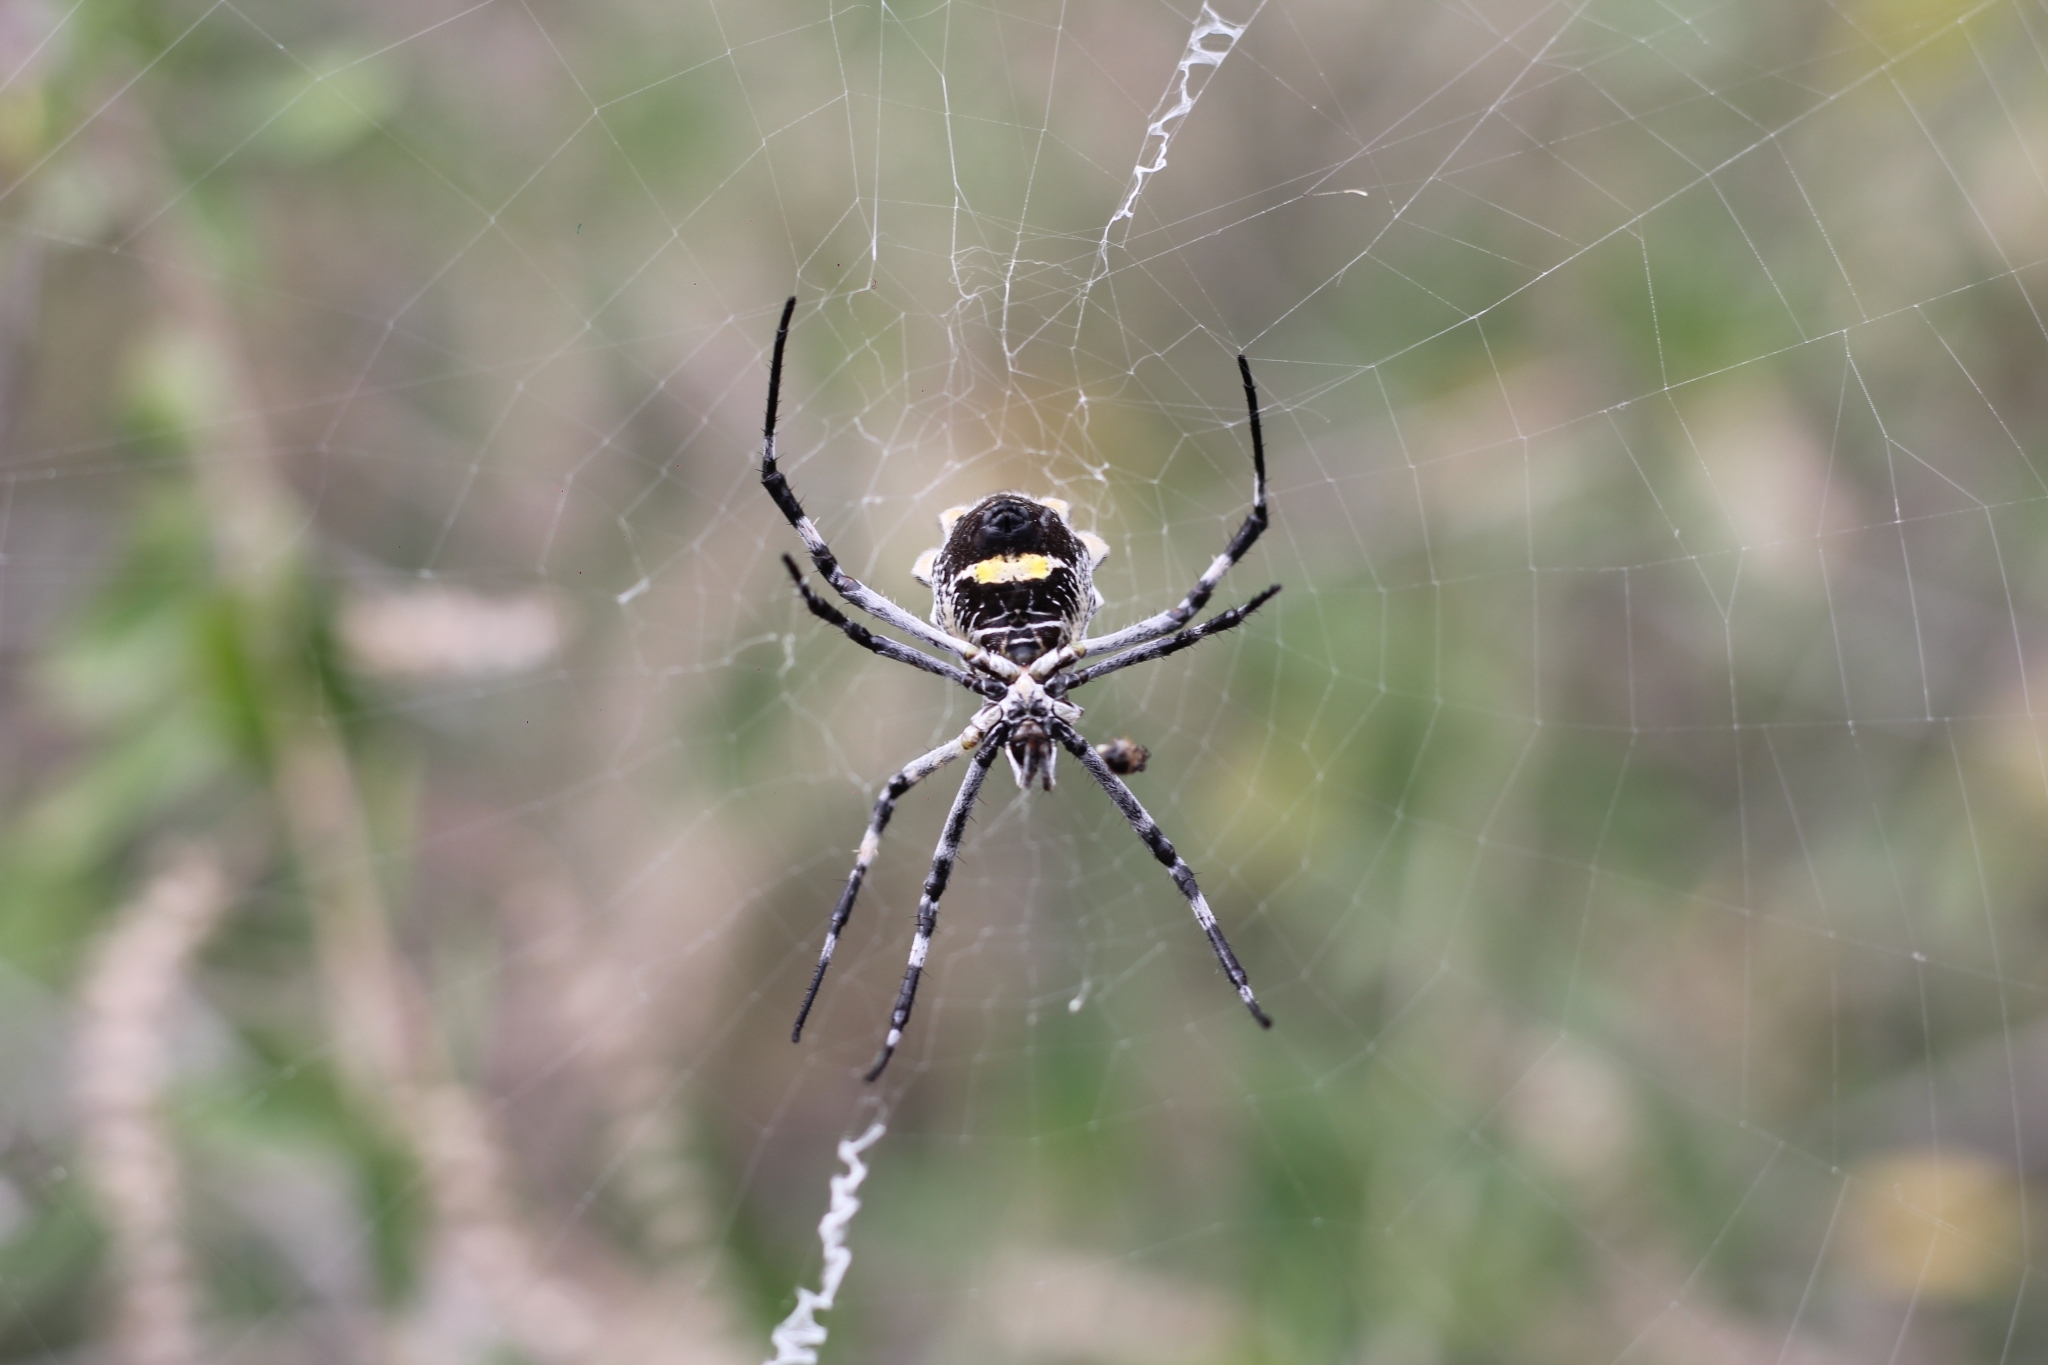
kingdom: Animalia
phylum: Arthropoda
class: Arachnida
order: Araneae
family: Araneidae
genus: Argiope
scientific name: Argiope argentata
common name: Orb weavers
